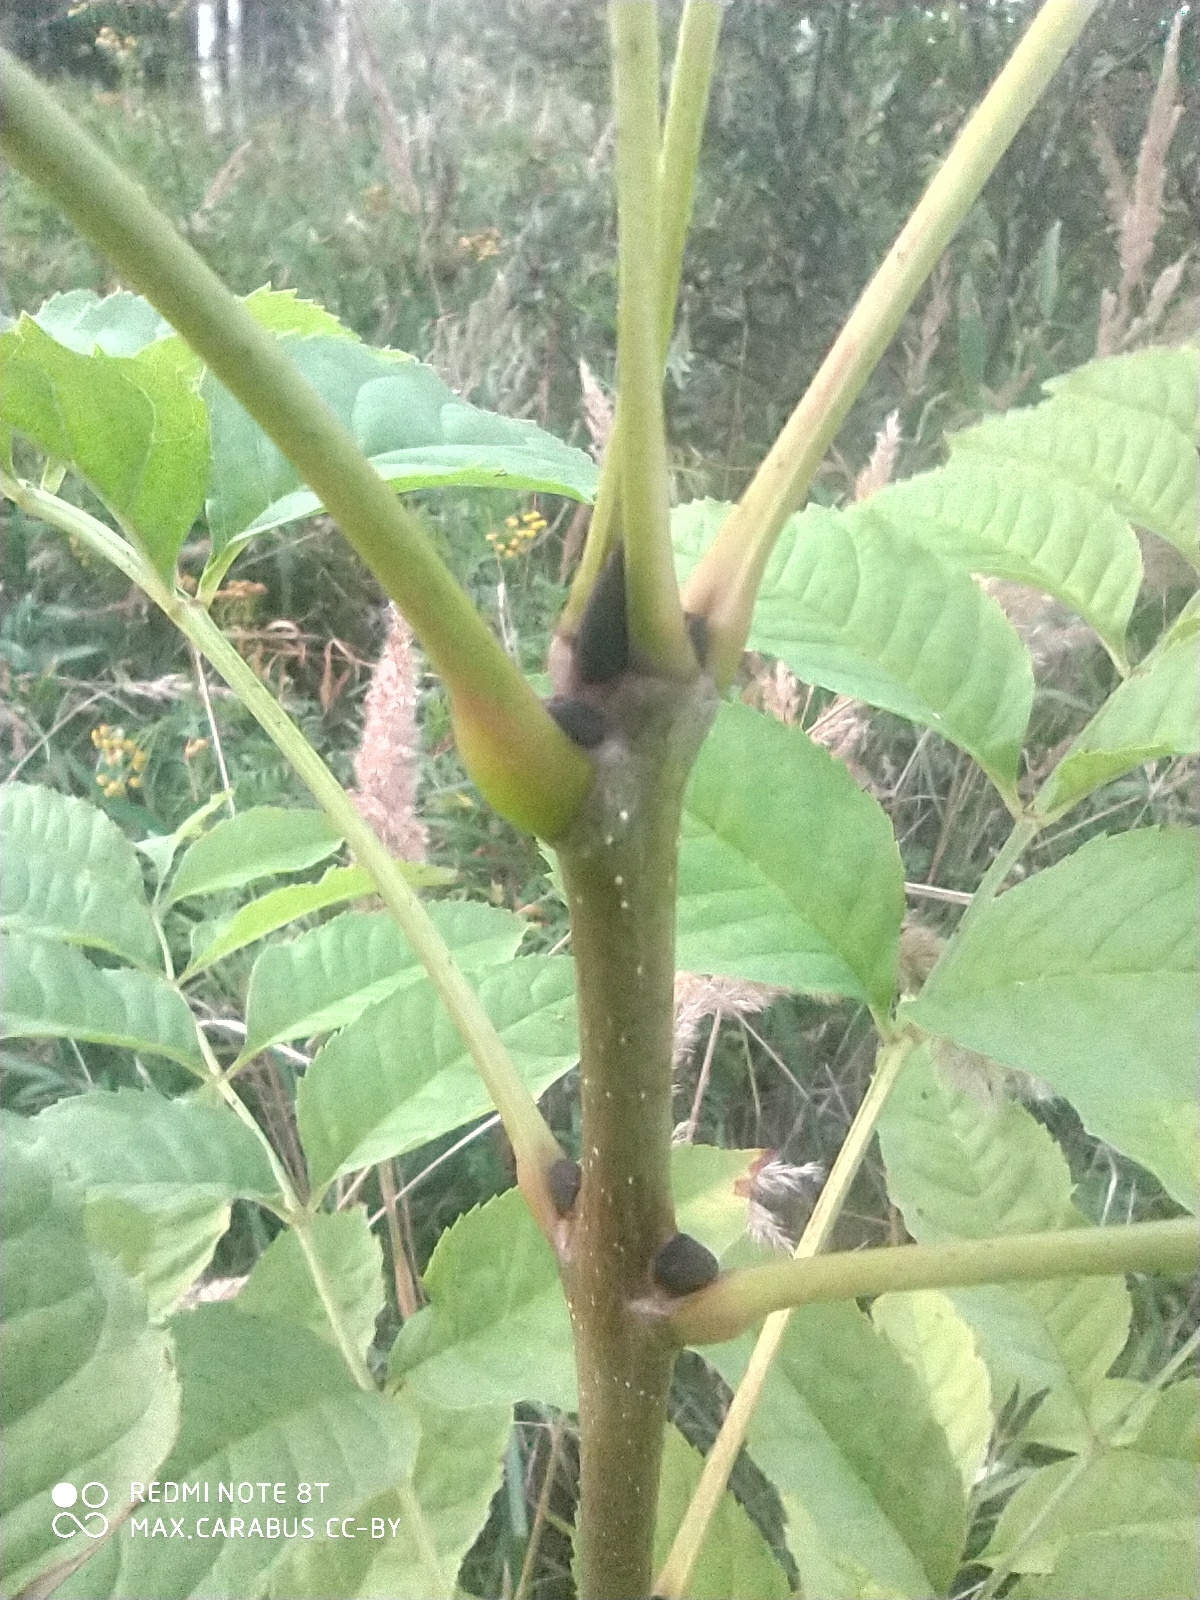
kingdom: Plantae
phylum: Tracheophyta
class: Magnoliopsida
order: Lamiales
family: Oleaceae
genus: Fraxinus
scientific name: Fraxinus excelsior
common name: European ash
